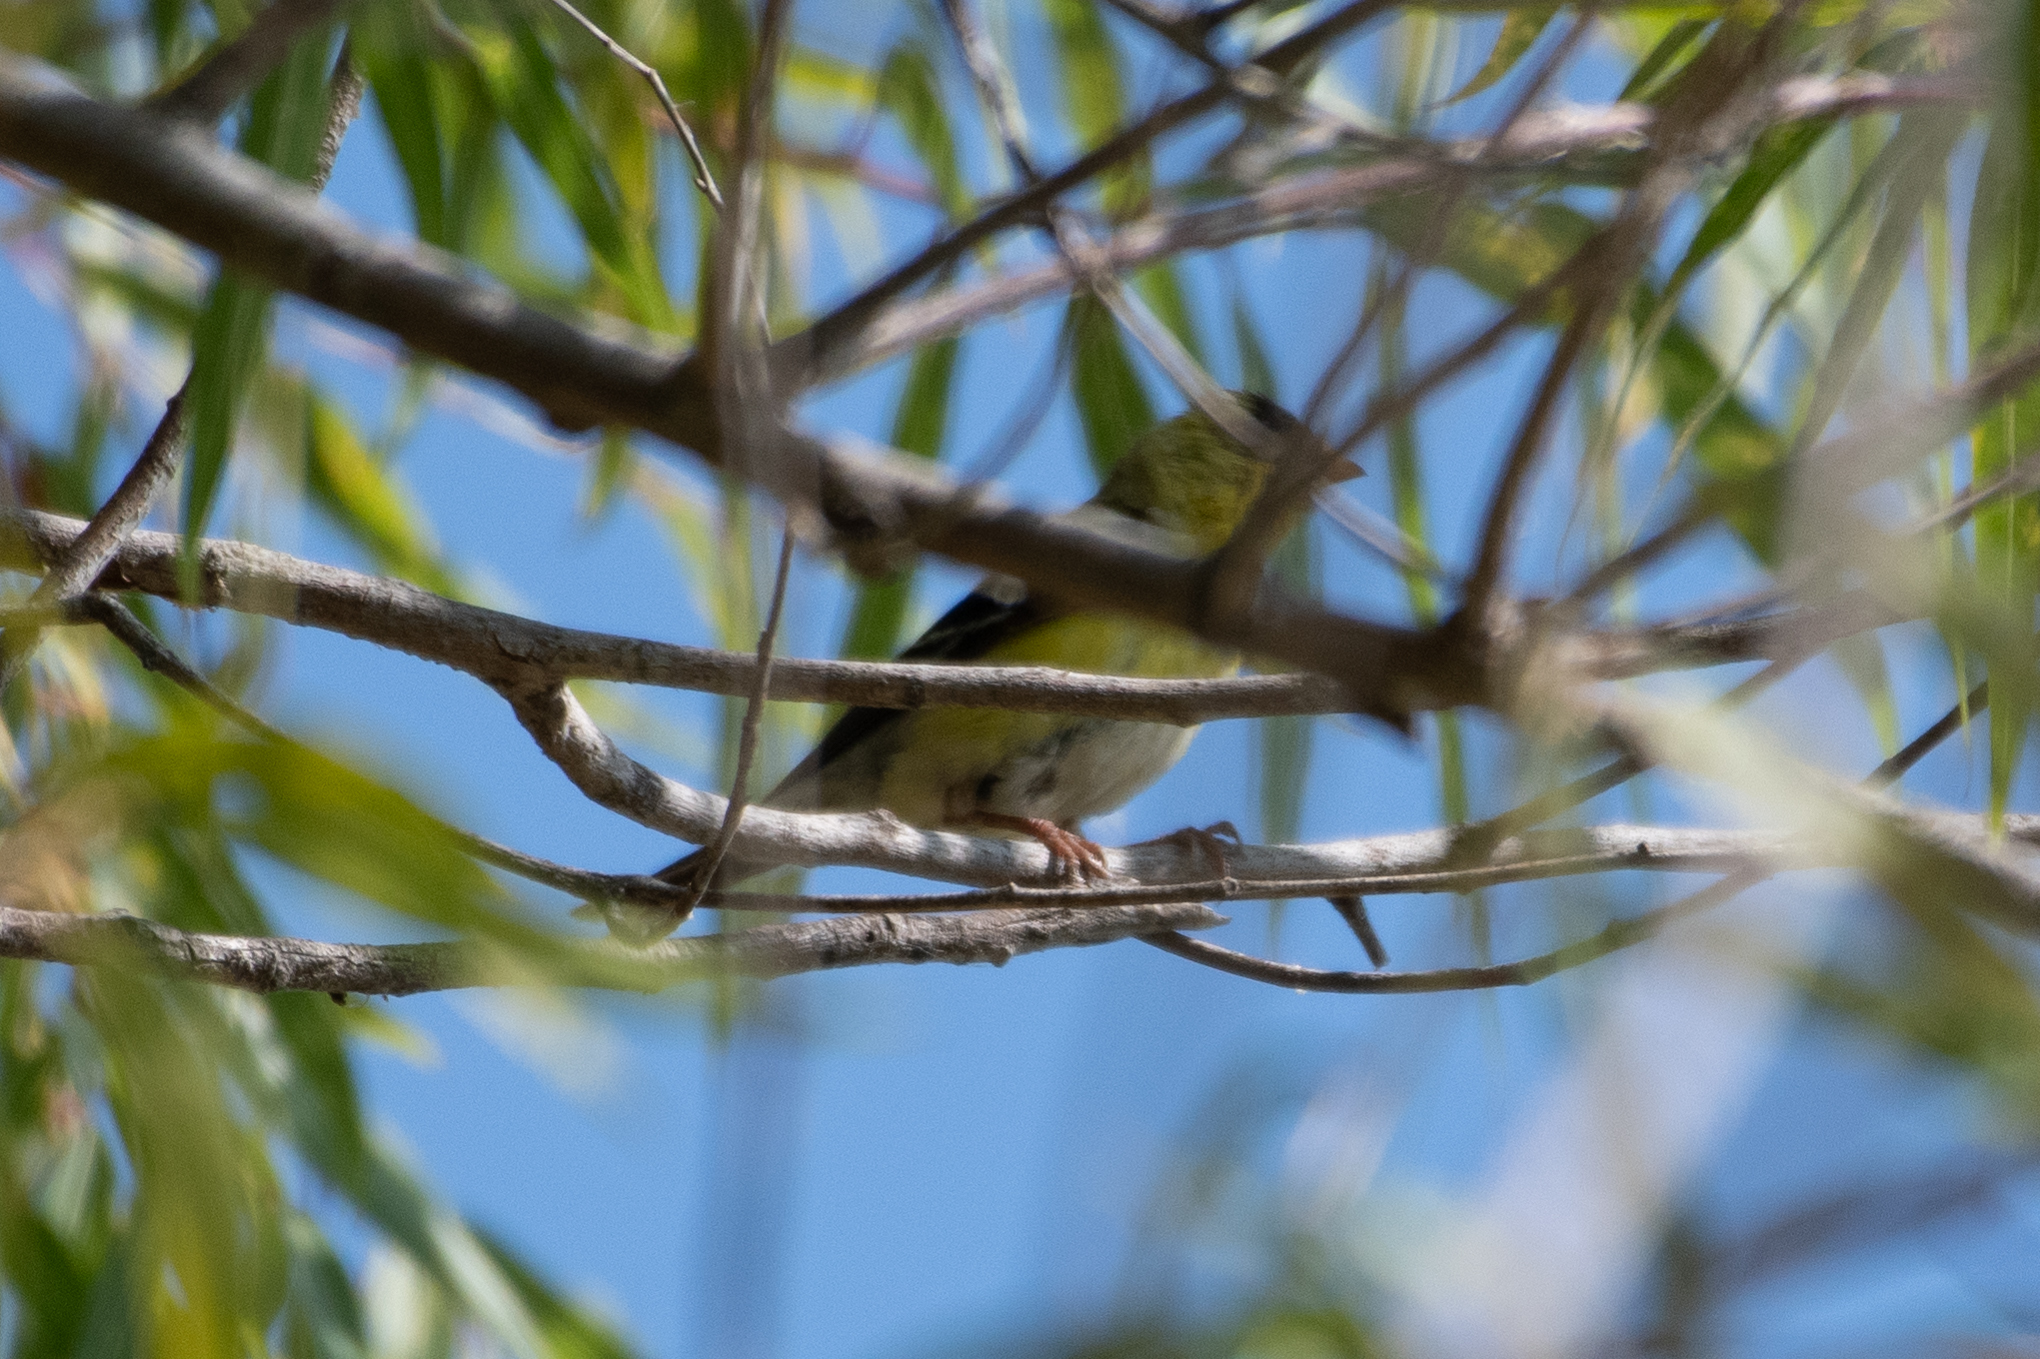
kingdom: Animalia
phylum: Chordata
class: Aves
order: Passeriformes
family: Fringillidae
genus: Spinus
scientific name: Spinus tristis
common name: American goldfinch
